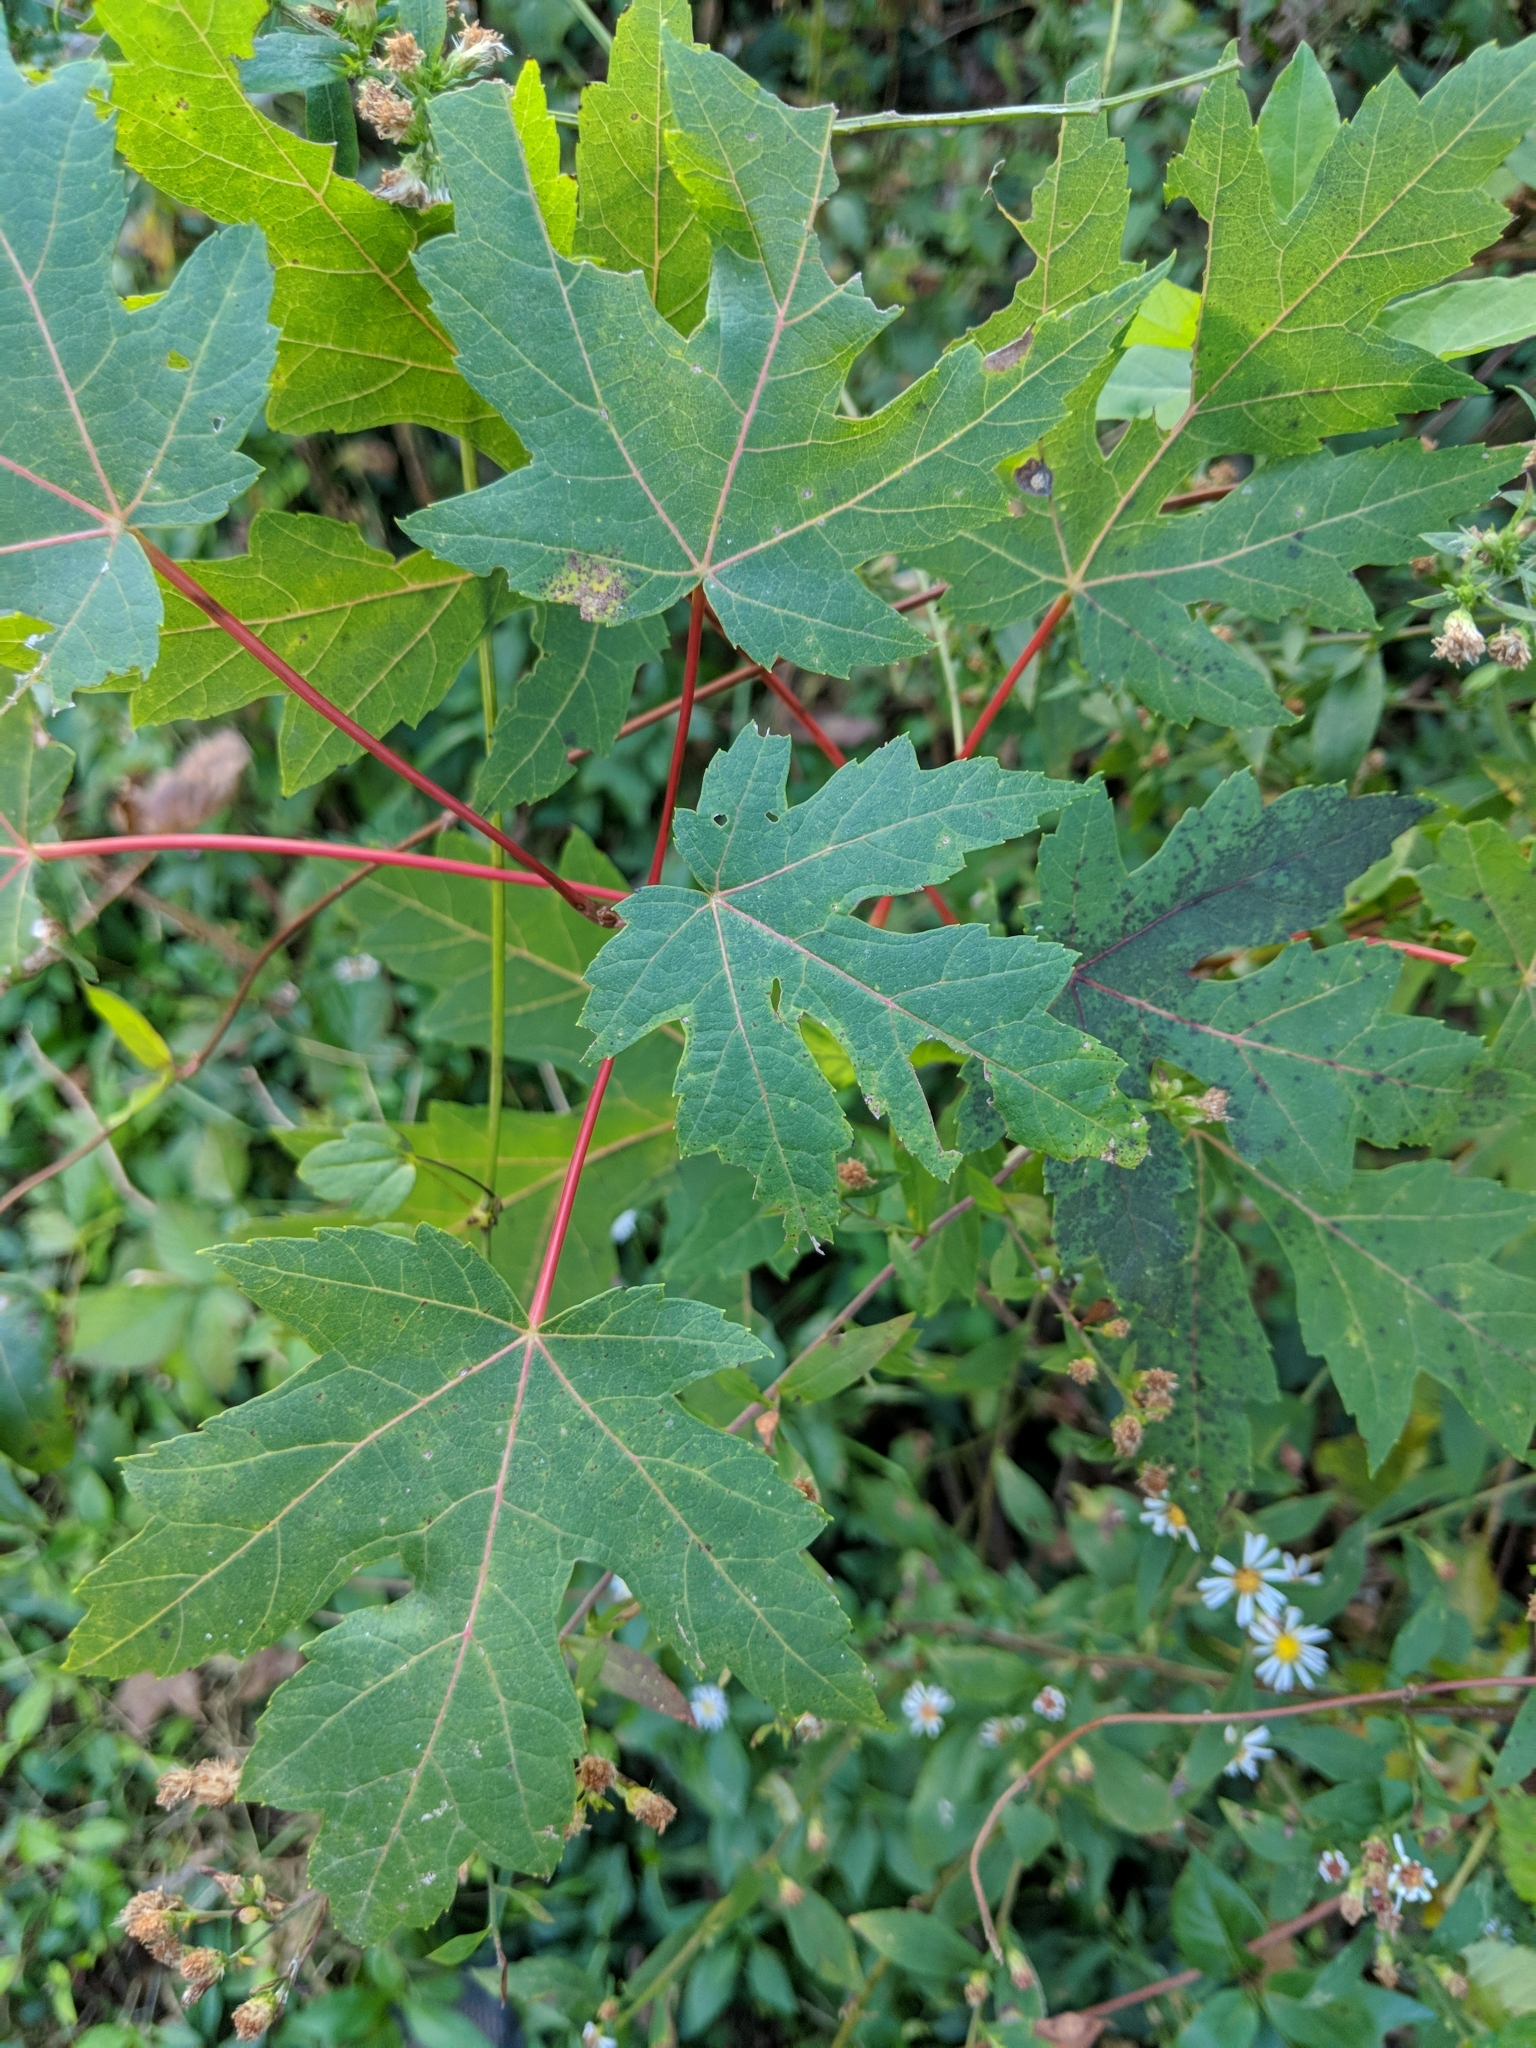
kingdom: Plantae
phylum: Tracheophyta
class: Magnoliopsida
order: Sapindales
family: Sapindaceae
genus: Acer
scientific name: Acer saccharinum
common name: Silver maple
